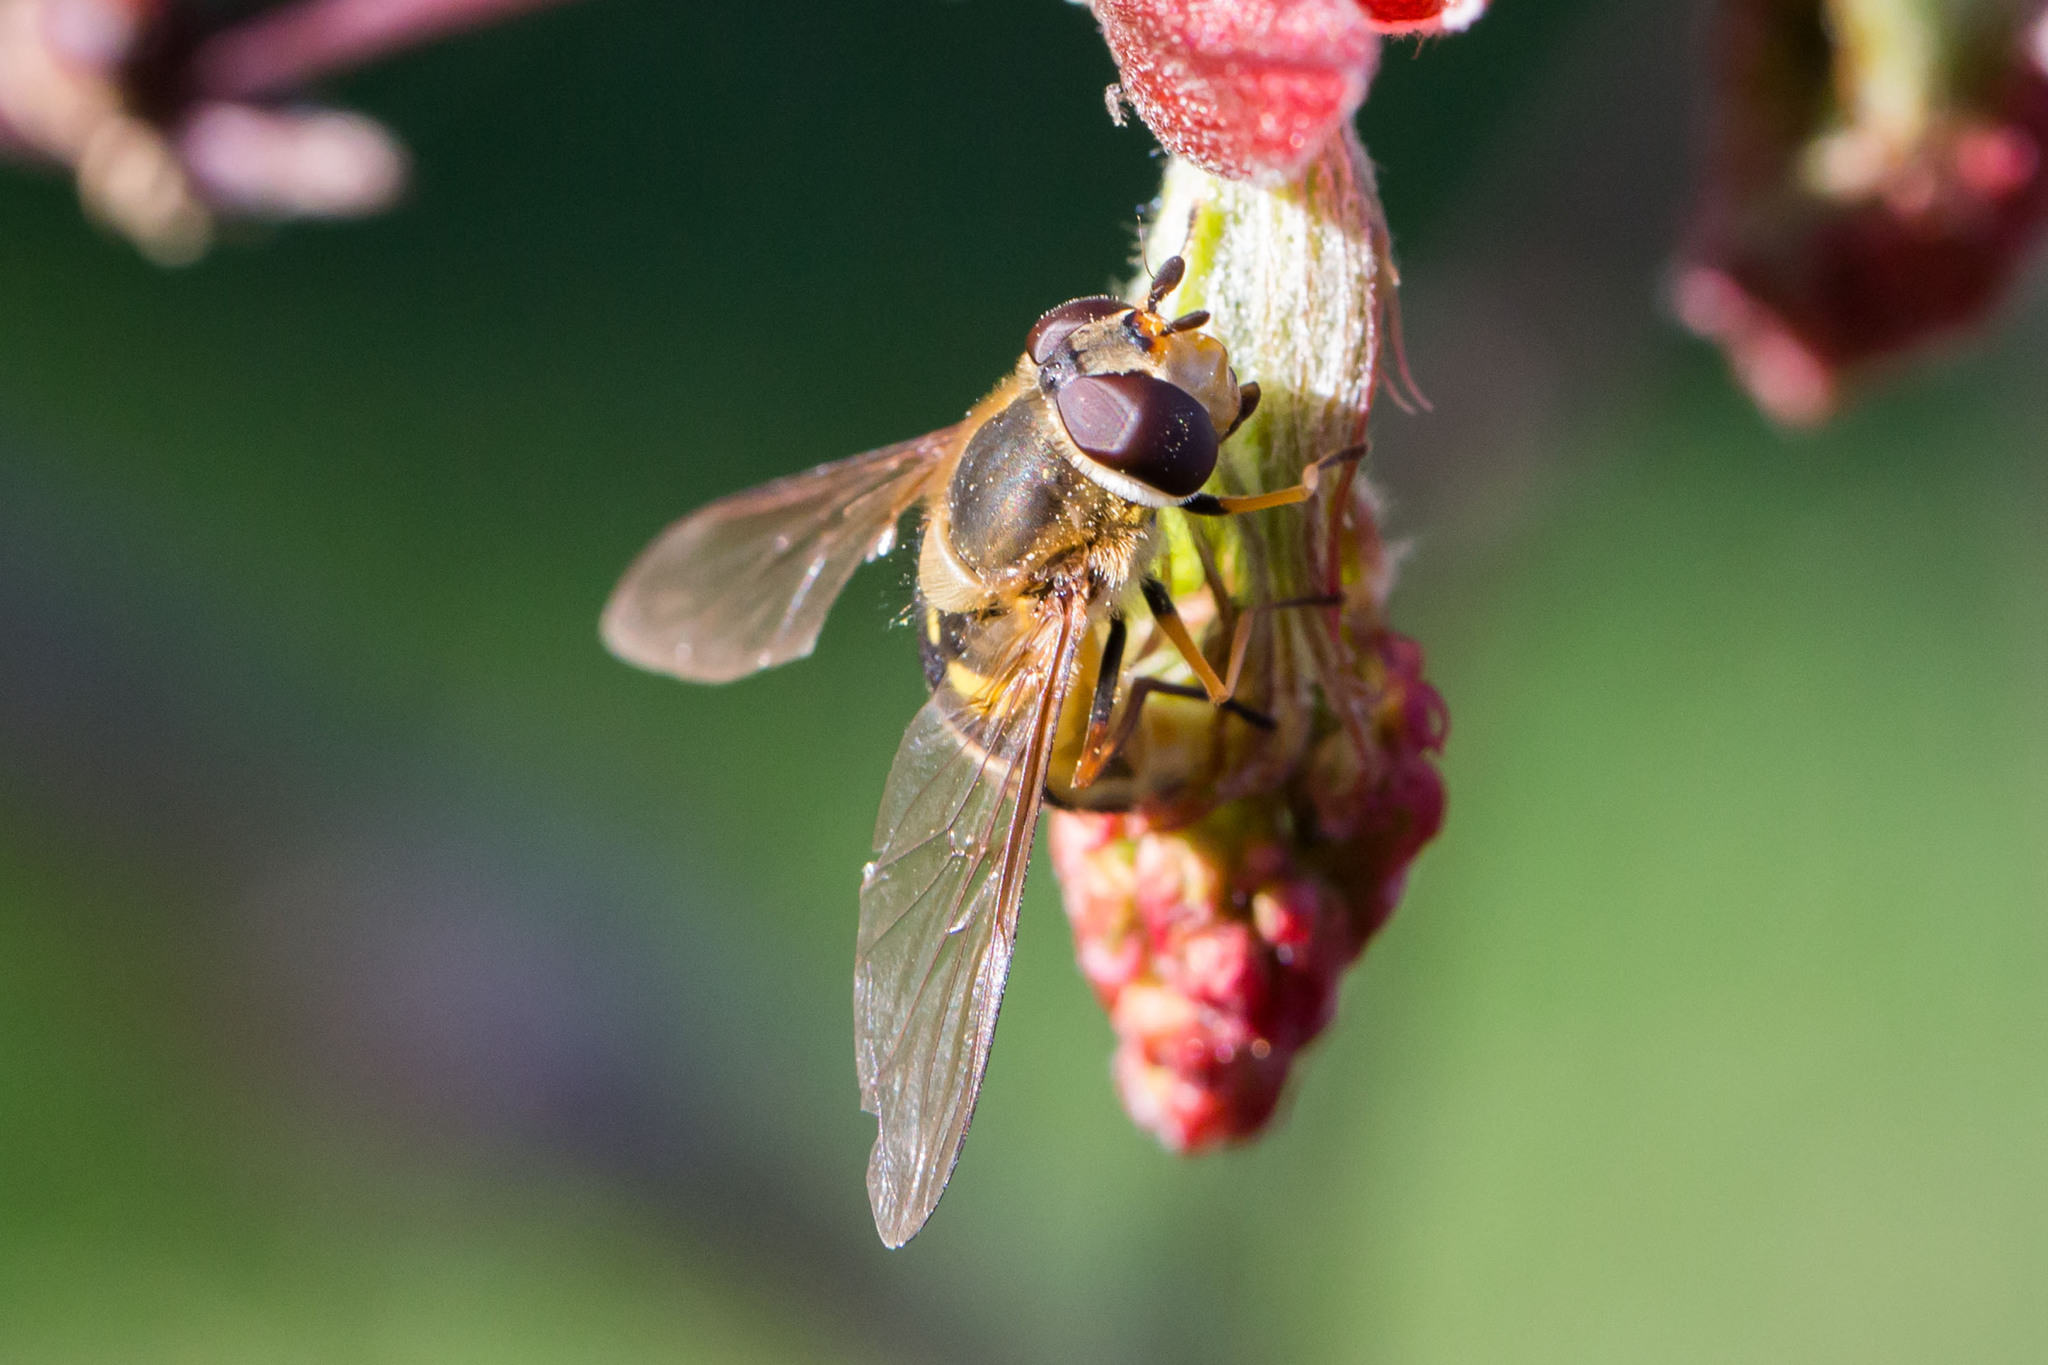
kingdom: Animalia
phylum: Arthropoda
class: Insecta
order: Diptera
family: Syrphidae
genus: Syrphus
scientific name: Syrphus torvus
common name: Hairy-eyed flower fly
